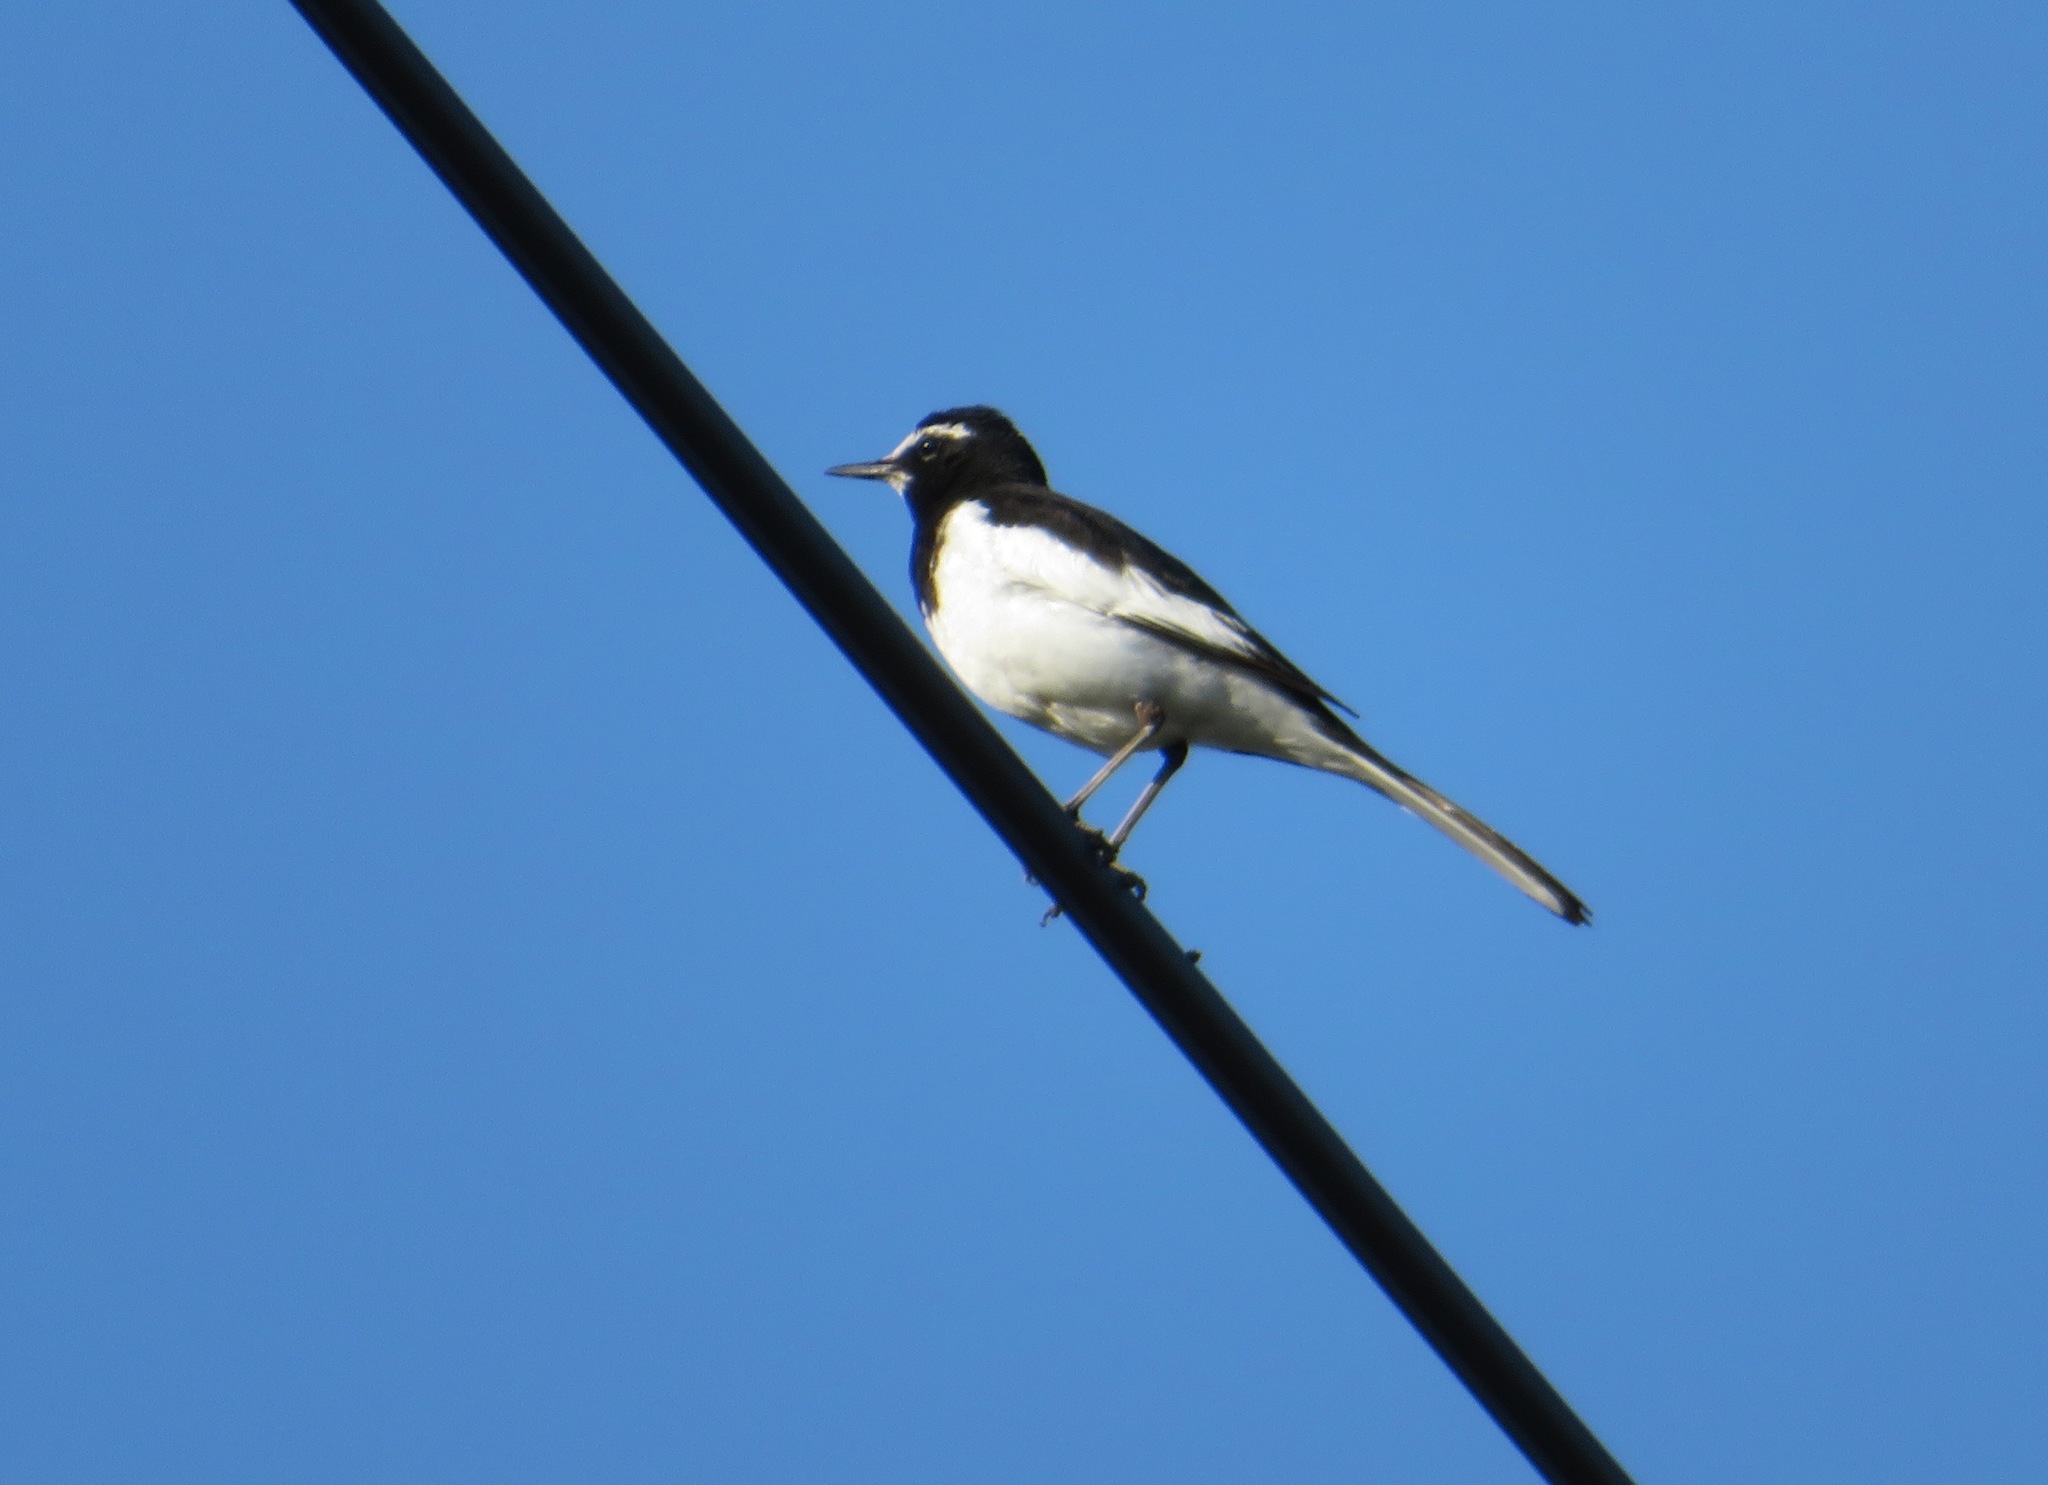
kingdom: Animalia
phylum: Chordata
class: Aves
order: Passeriformes
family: Motacillidae
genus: Motacilla
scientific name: Motacilla grandis
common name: Japanese wagtail
